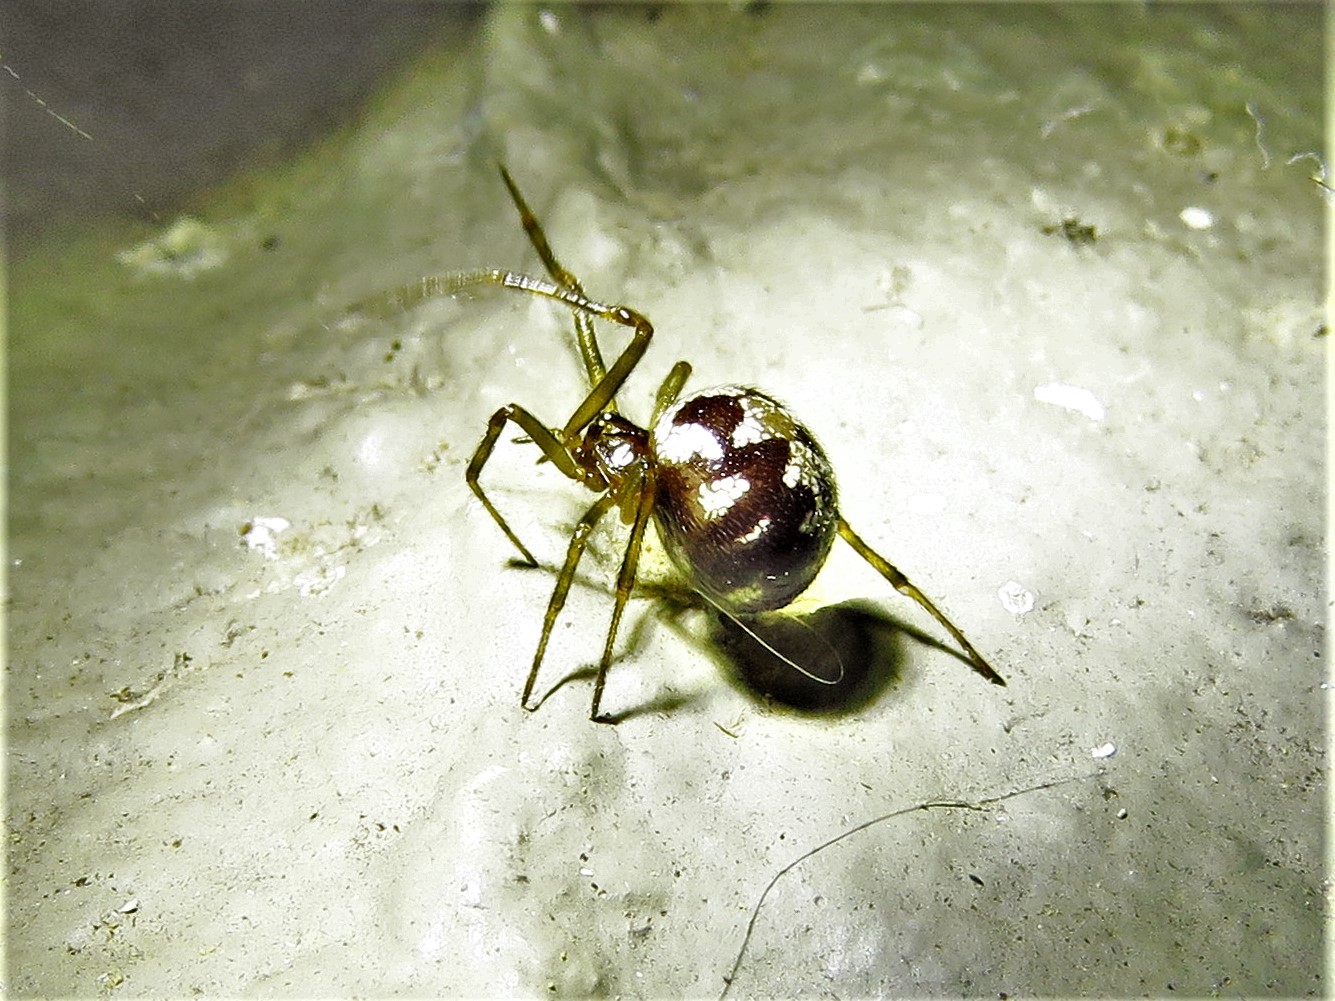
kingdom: Animalia
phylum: Arthropoda
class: Arachnida
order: Araneae
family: Theridiidae
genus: Steatoda
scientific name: Steatoda triangulosa
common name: Triangulate bud spider
